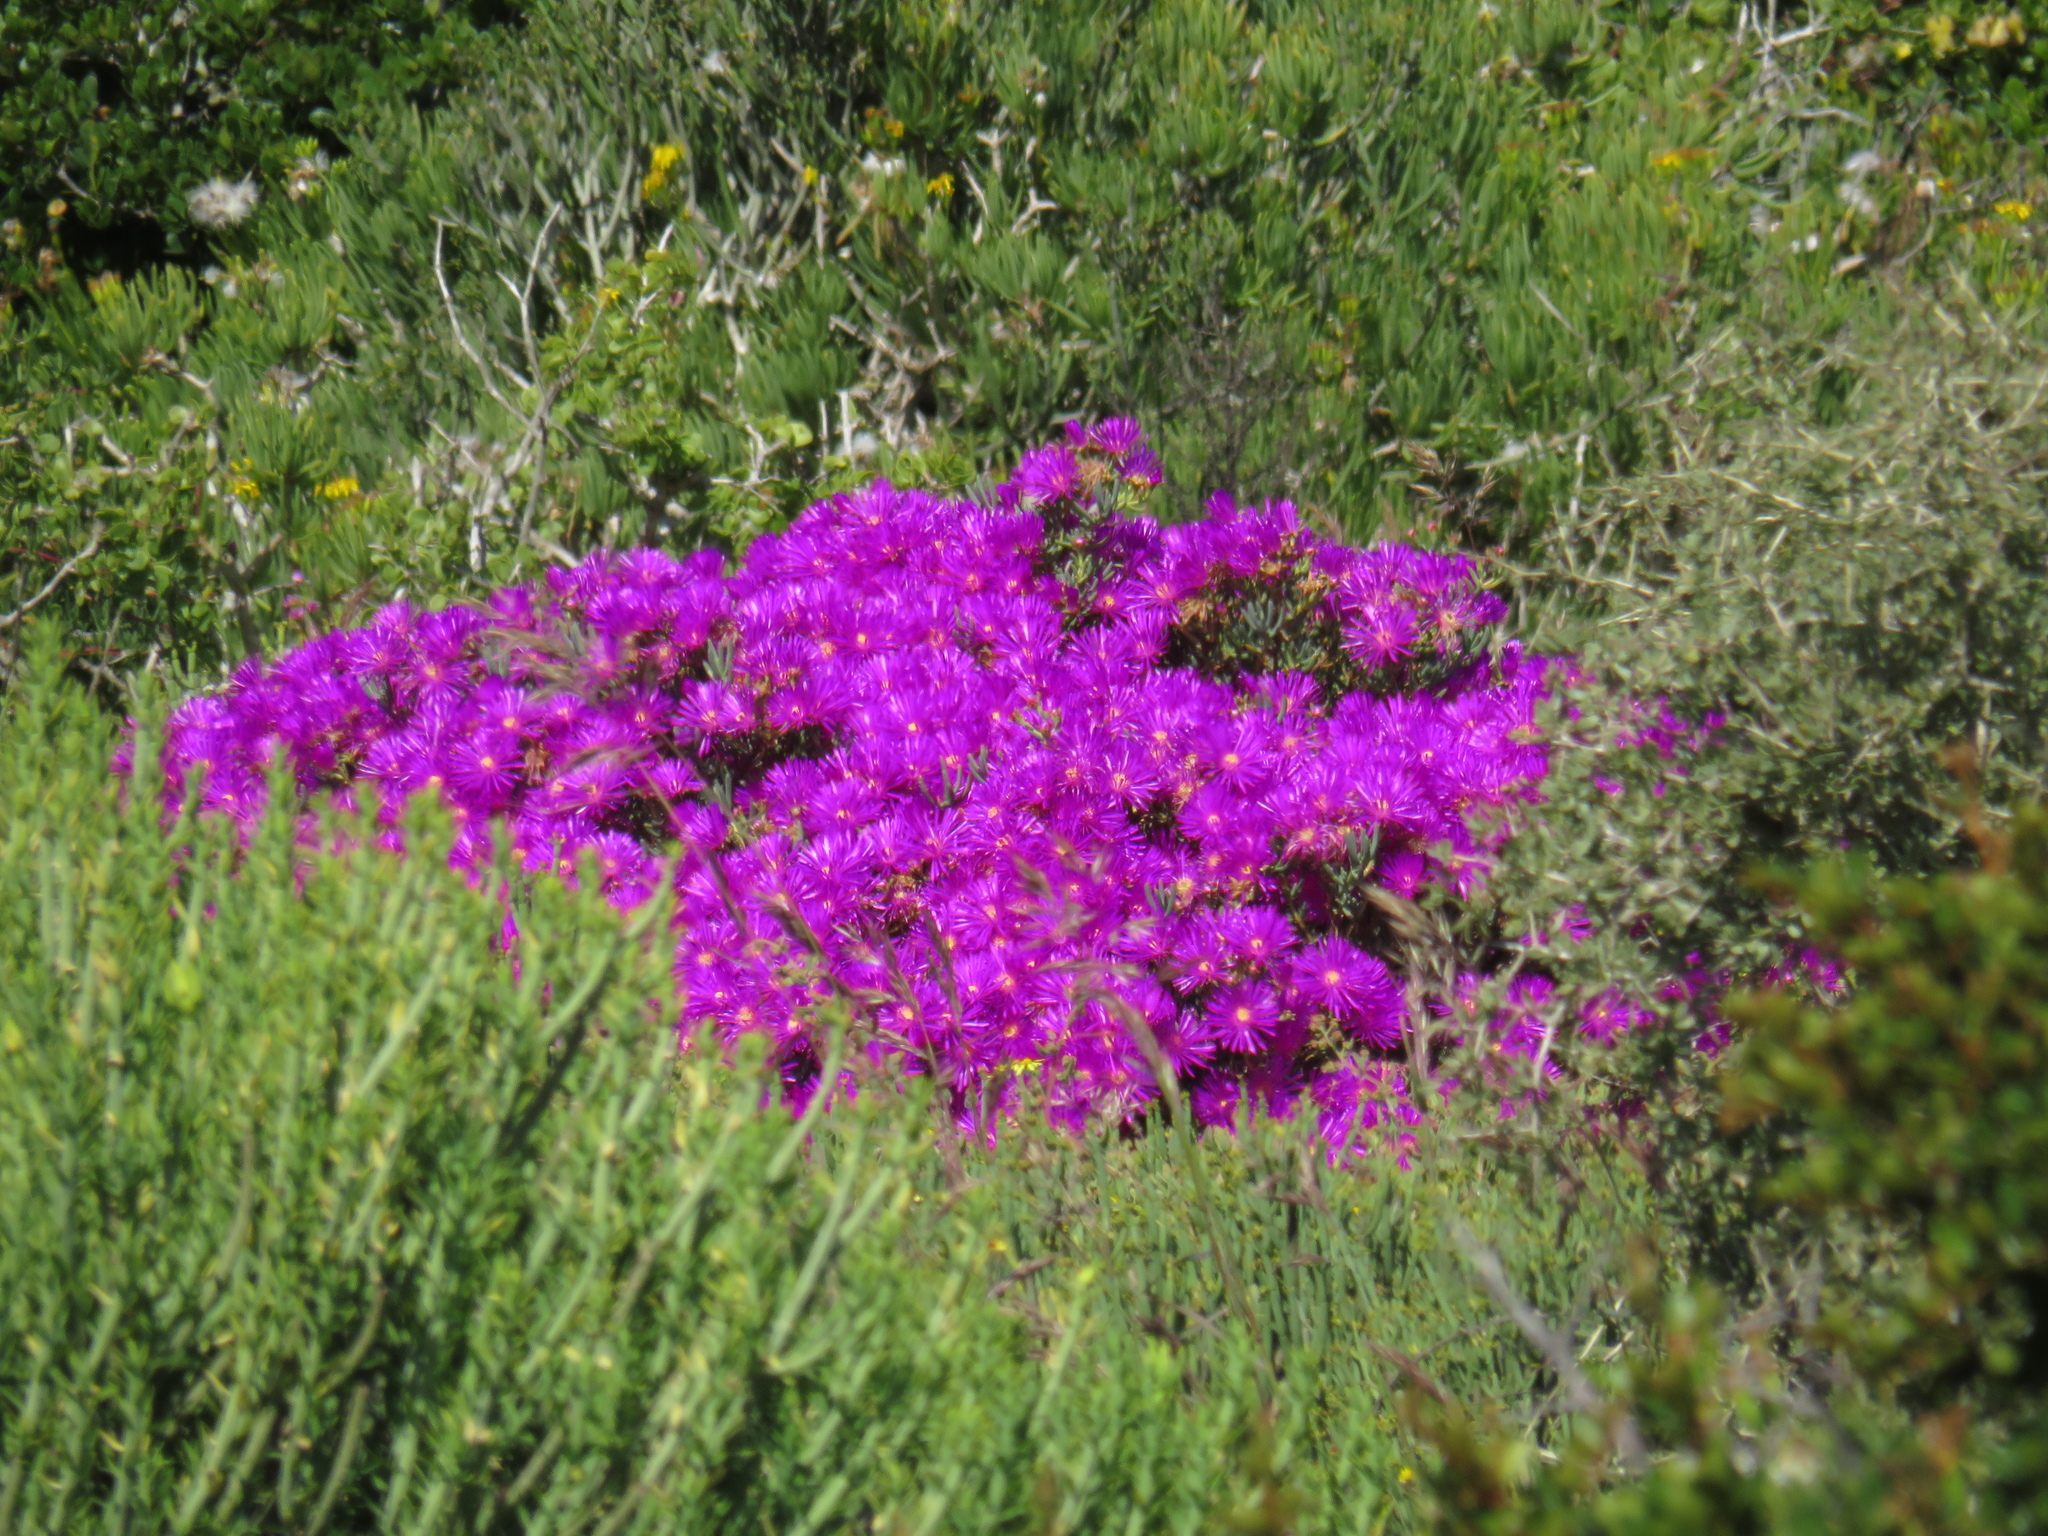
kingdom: Plantae
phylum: Tracheophyta
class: Magnoliopsida
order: Caryophyllales
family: Aizoaceae
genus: Lampranthus
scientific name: Lampranthus vernalis
